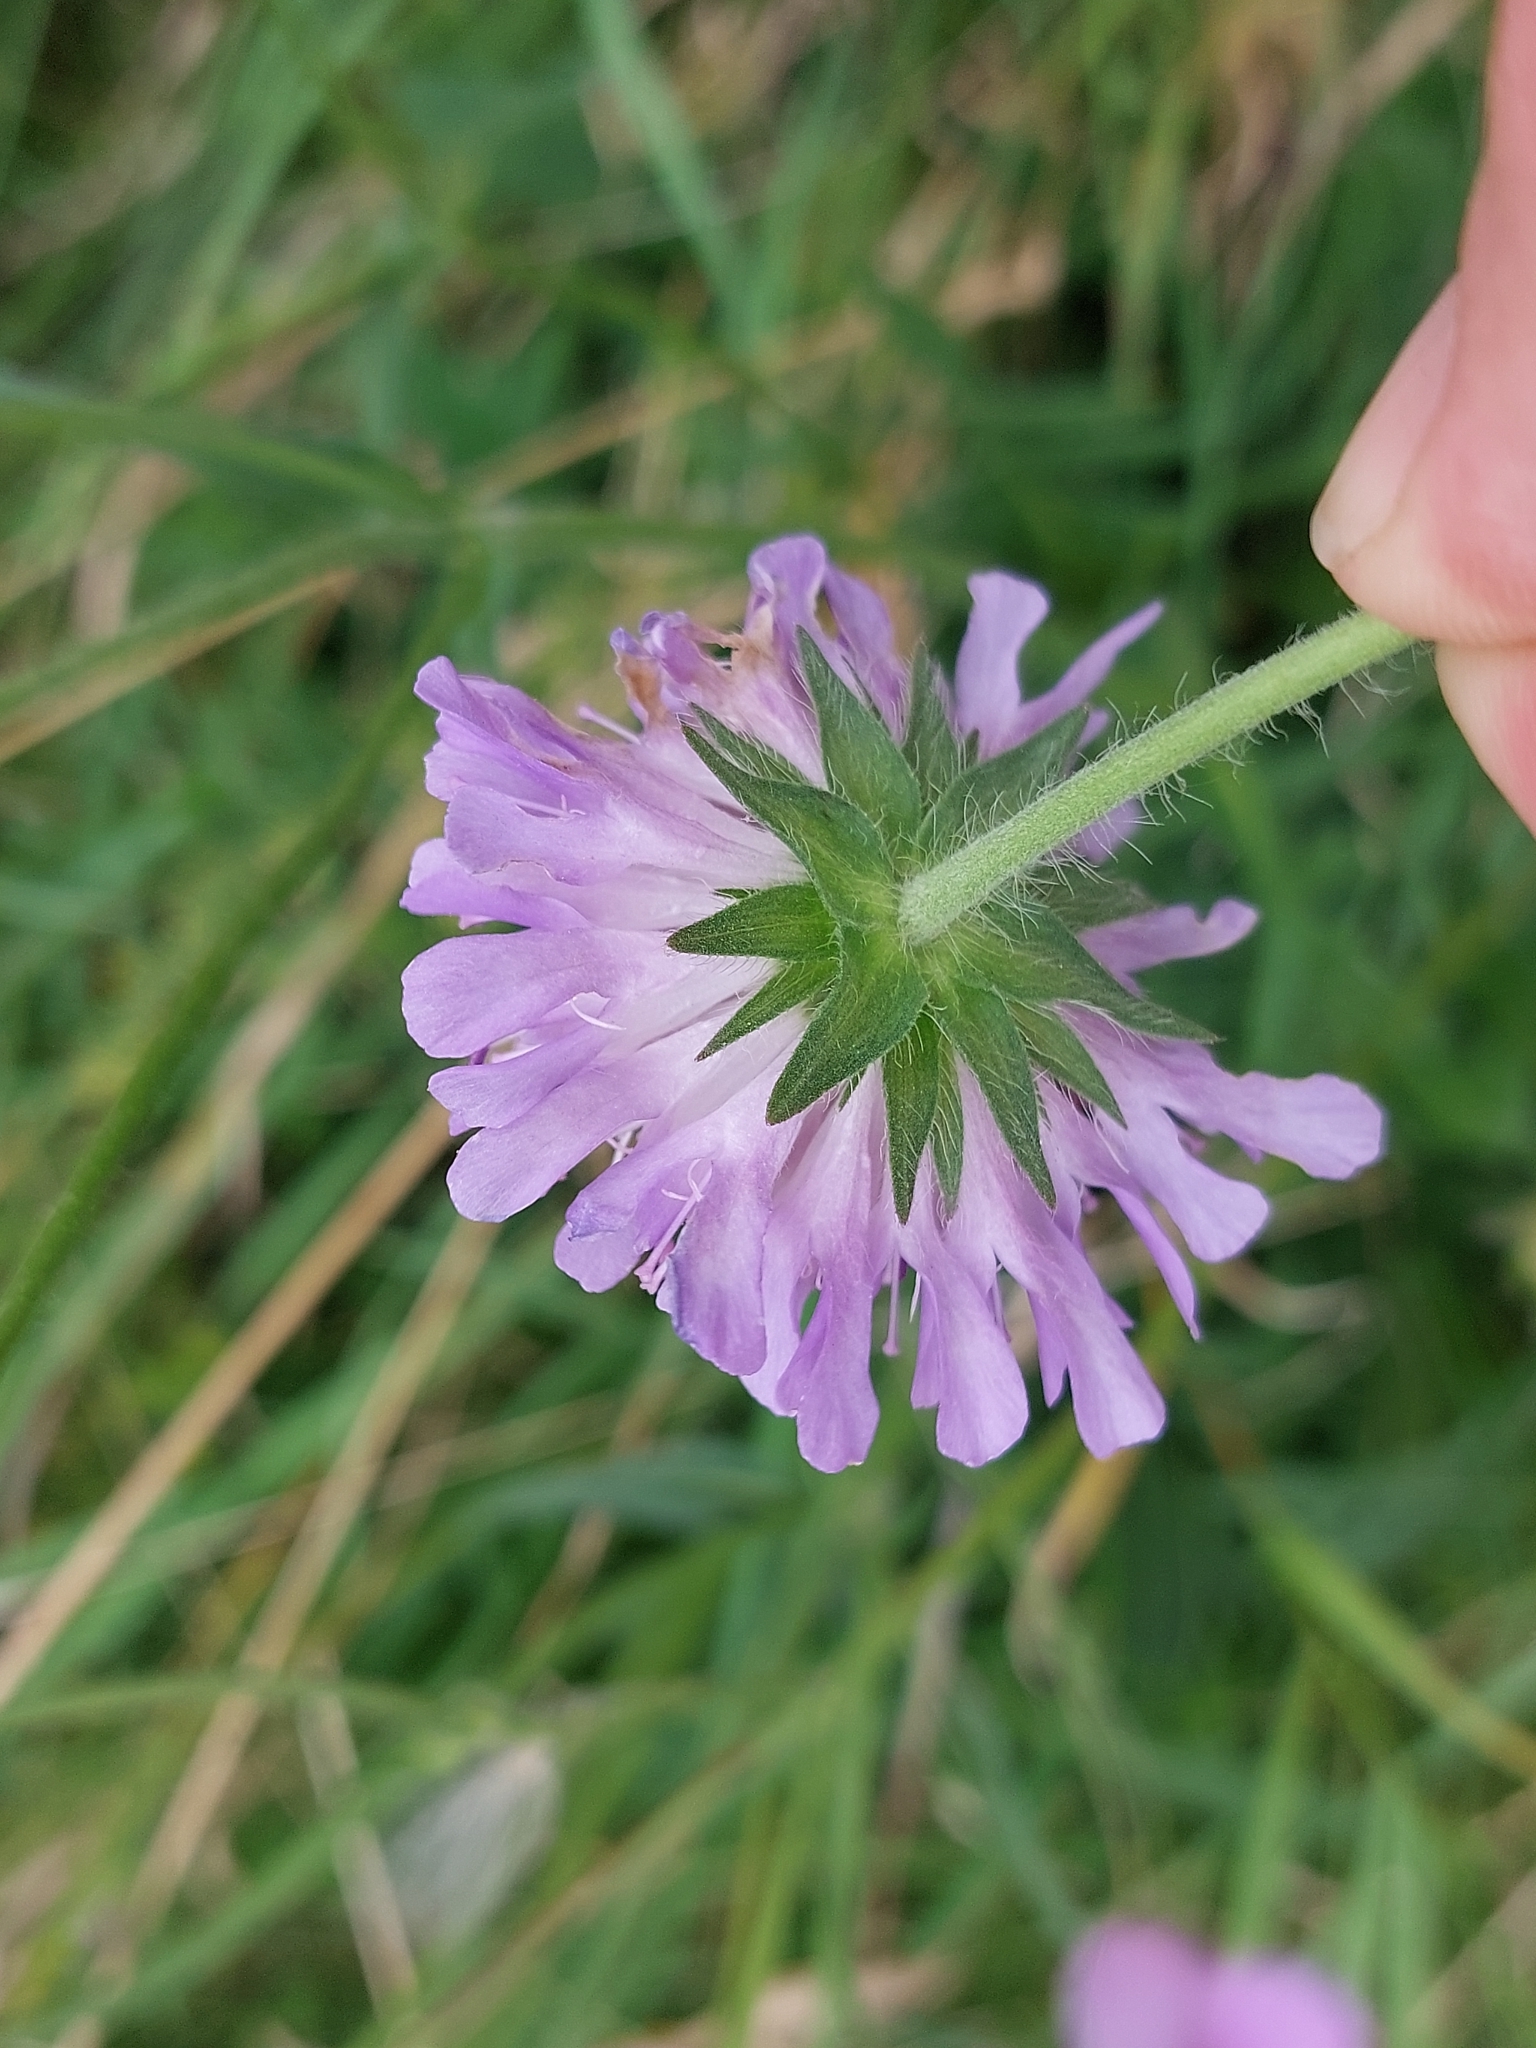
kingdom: Plantae
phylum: Tracheophyta
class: Magnoliopsida
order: Dipsacales
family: Caprifoliaceae
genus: Knautia
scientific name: Knautia arvensis
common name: Field scabiosa
